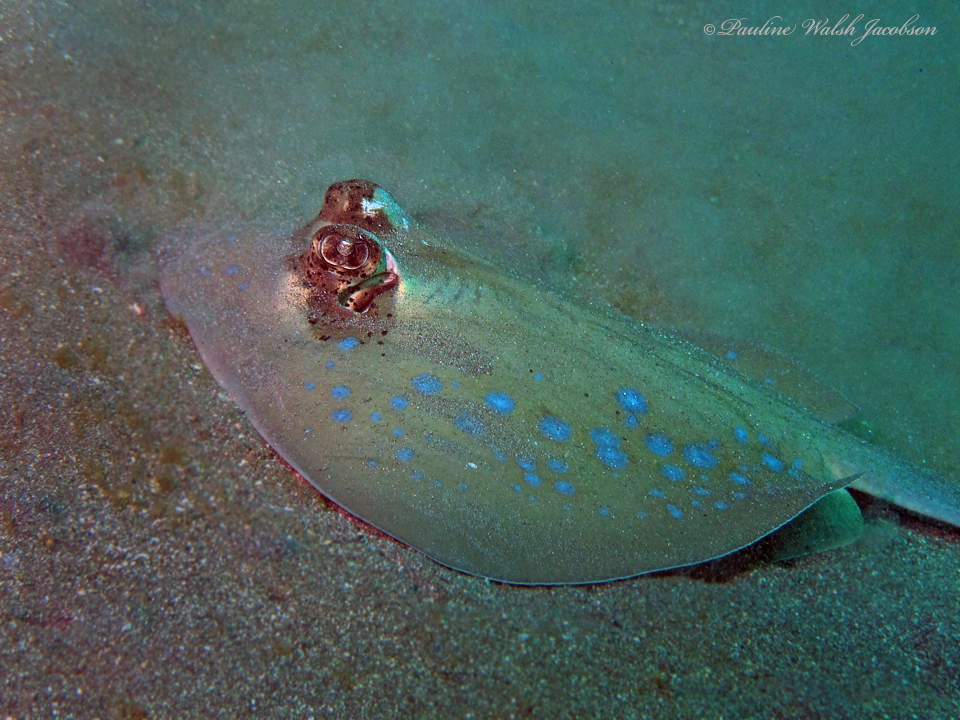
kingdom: Animalia
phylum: Chordata
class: Elasmobranchii
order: Myliobatiformes
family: Dasyatidae
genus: Neotrygon
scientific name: Neotrygon orientale
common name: Oriental bluespotted maskray
